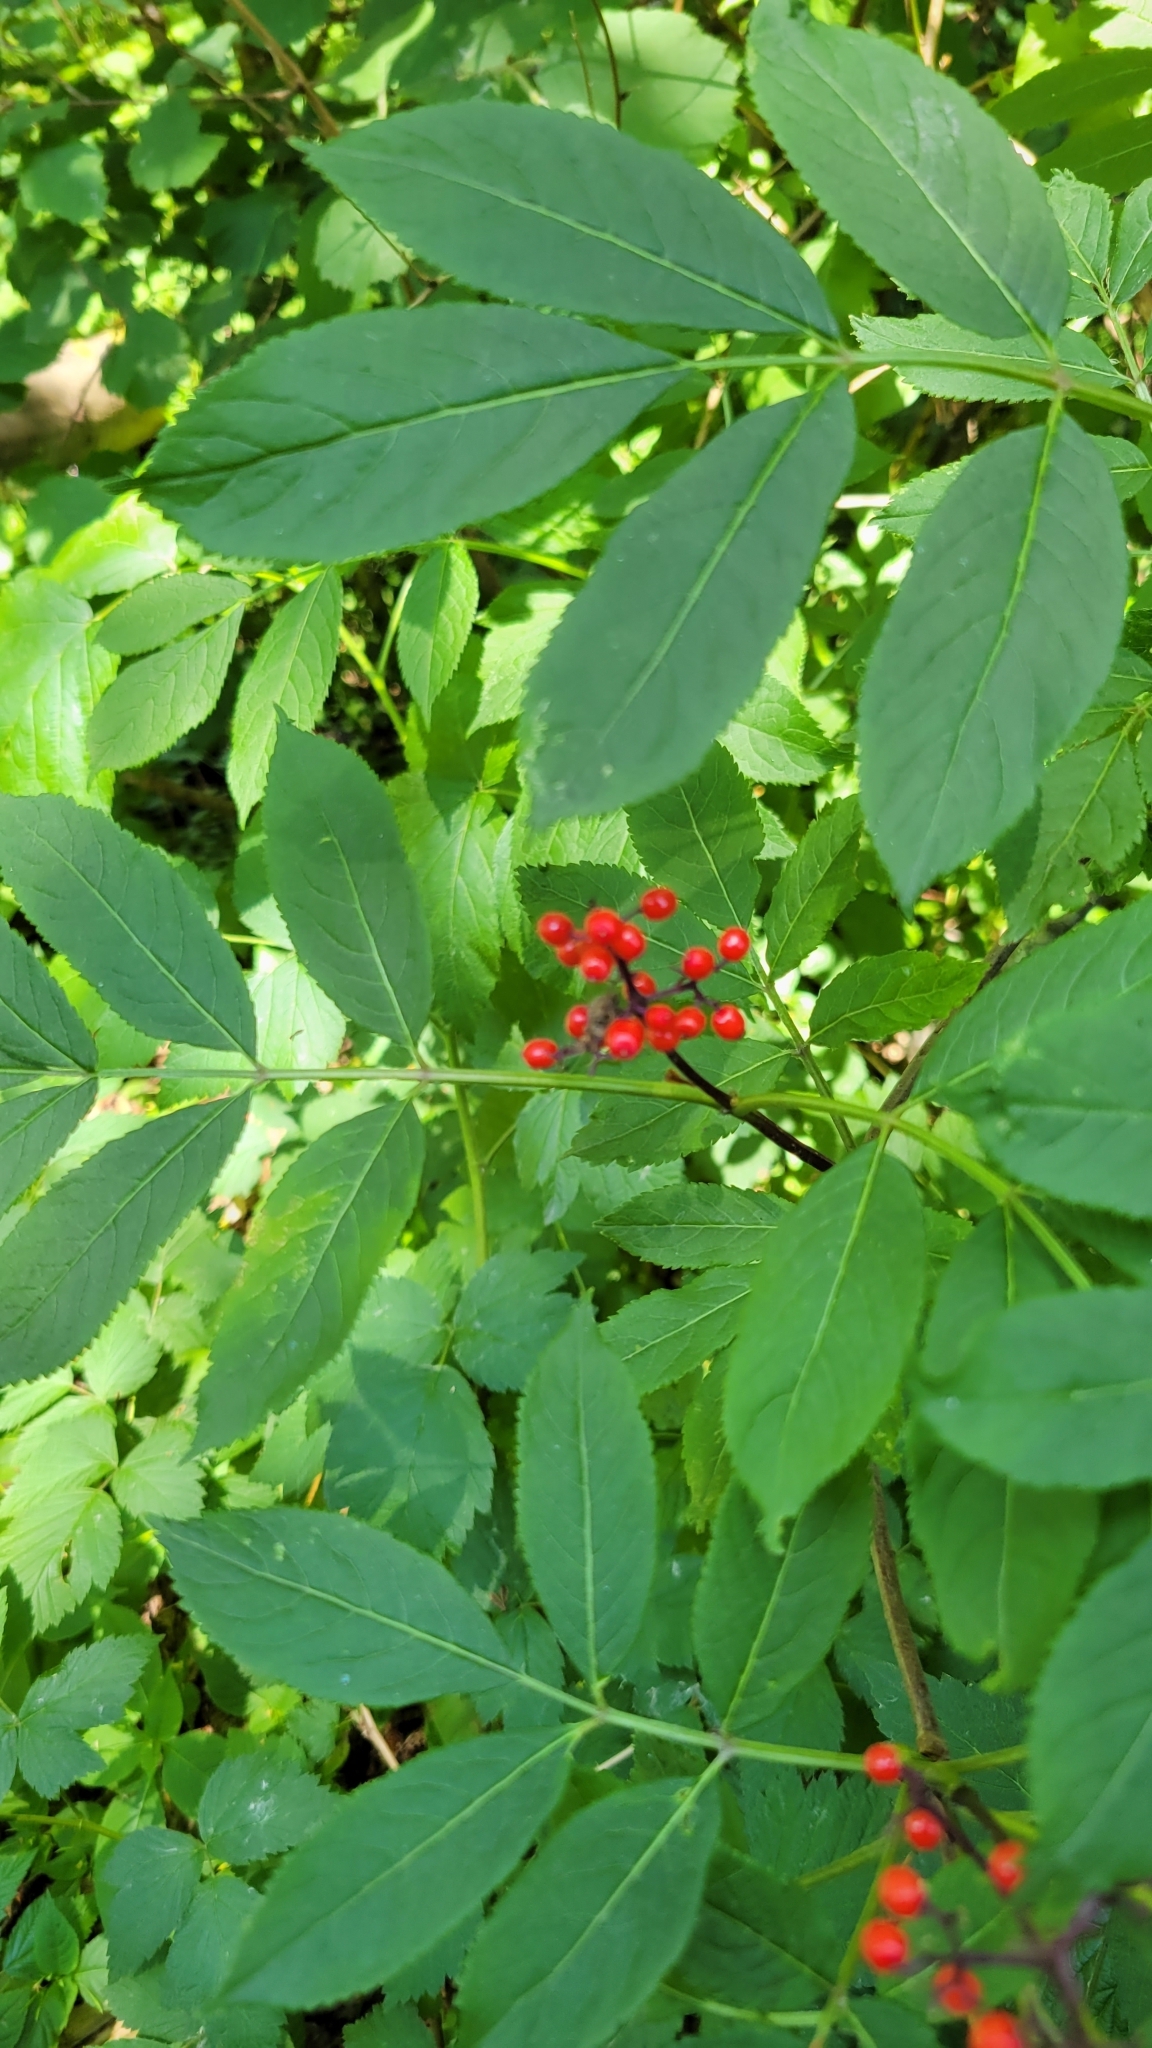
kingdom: Plantae
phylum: Tracheophyta
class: Magnoliopsida
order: Dipsacales
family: Viburnaceae
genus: Sambucus
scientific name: Sambucus racemosa
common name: Red-berried elder
